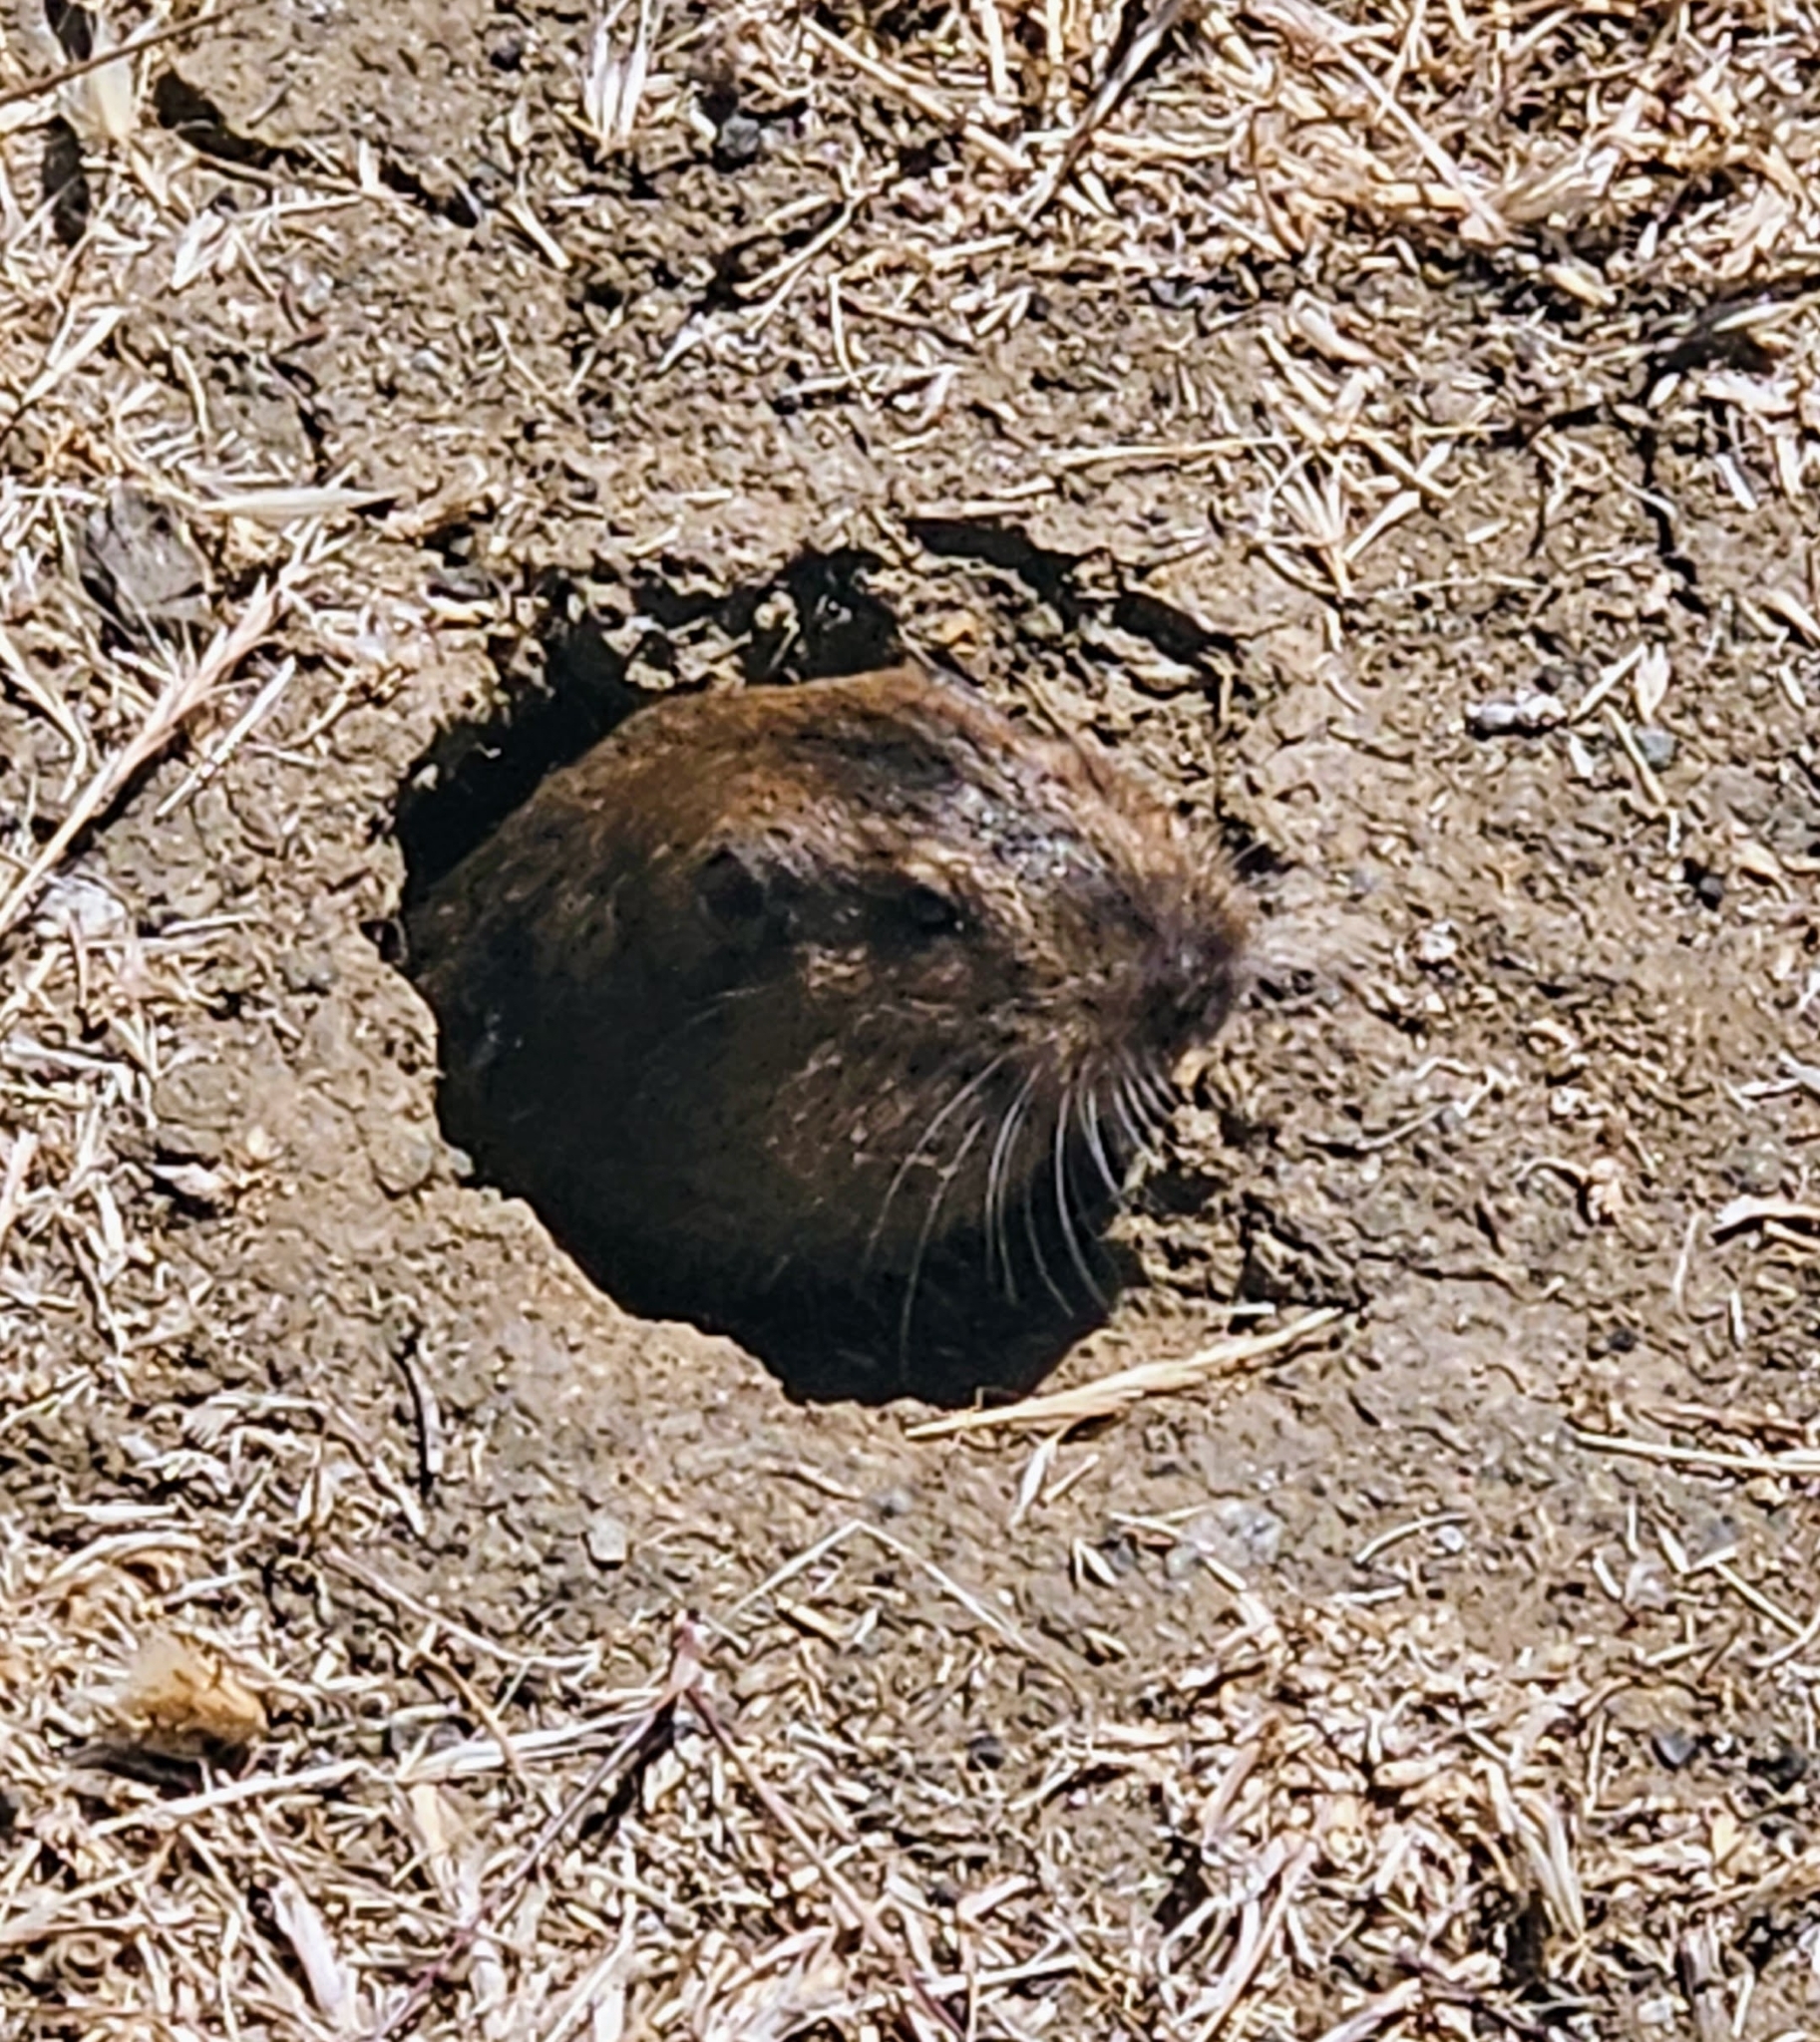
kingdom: Animalia
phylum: Chordata
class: Mammalia
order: Rodentia
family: Geomyidae
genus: Thomomys
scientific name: Thomomys bottae
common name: Botta's pocket gopher
